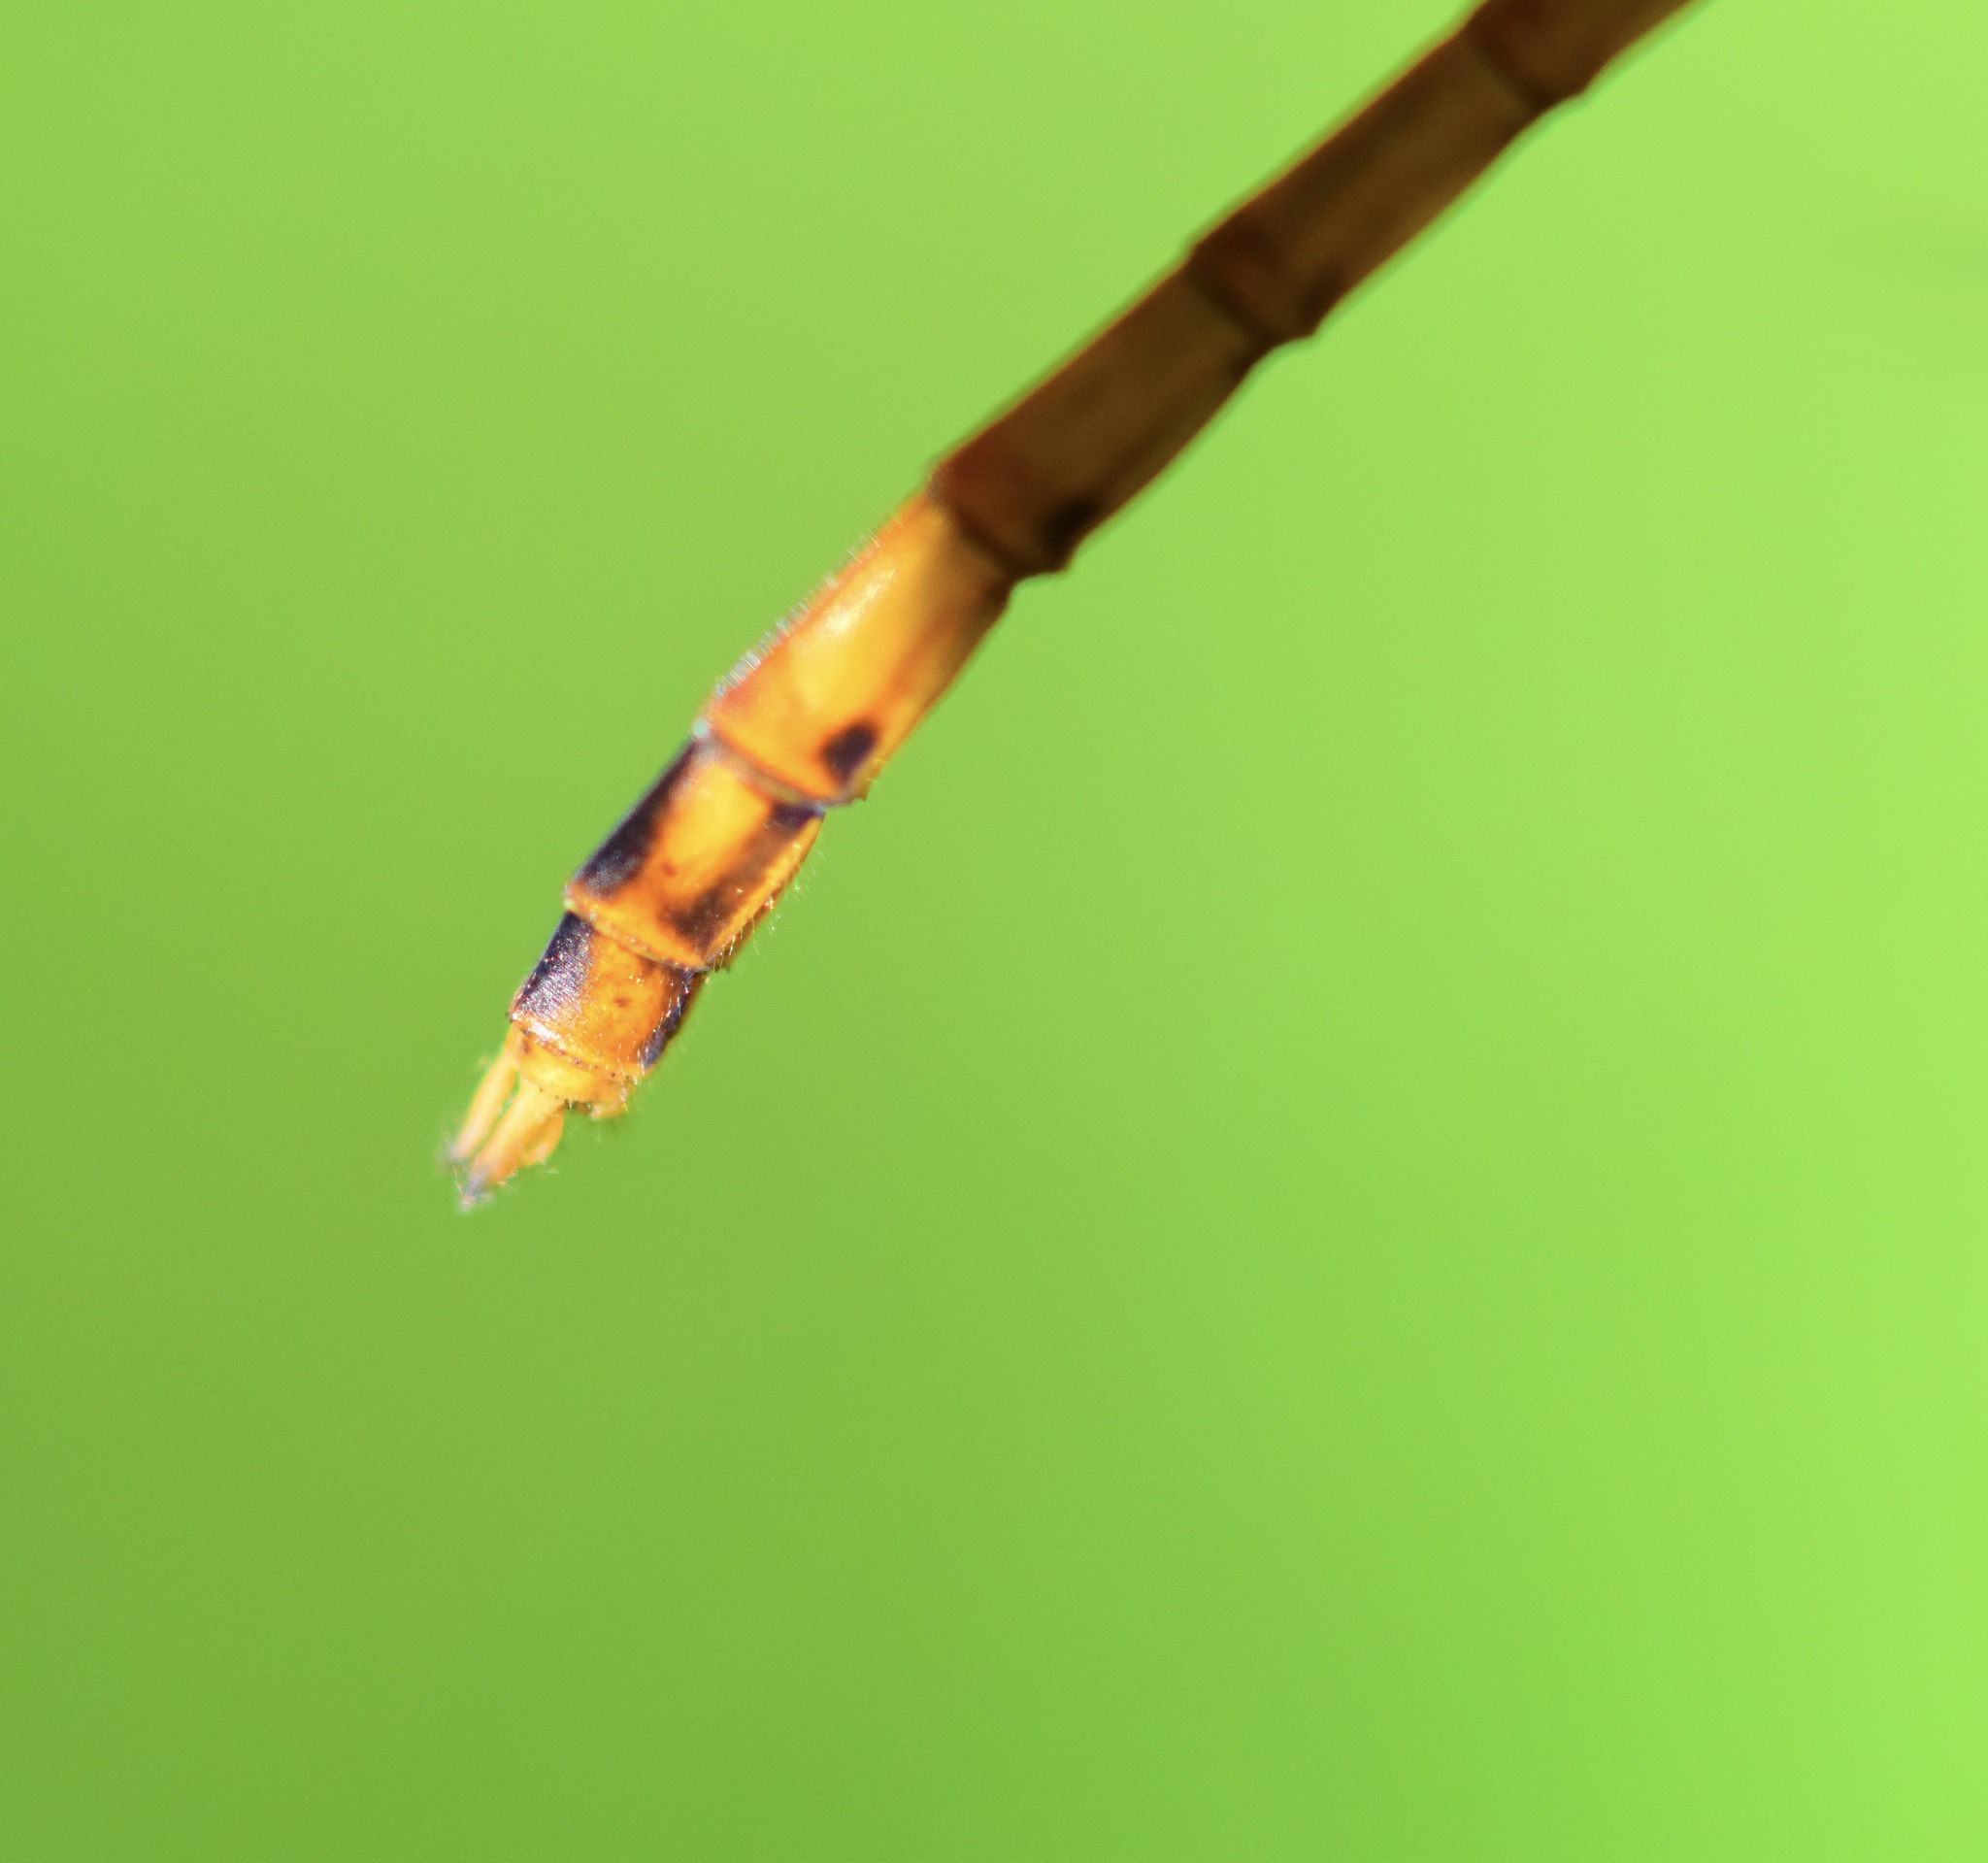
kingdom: Animalia
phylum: Arthropoda
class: Insecta
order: Odonata
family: Libellulidae
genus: Sympetrum
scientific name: Sympetrum vicinum
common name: Autumn meadowhawk
